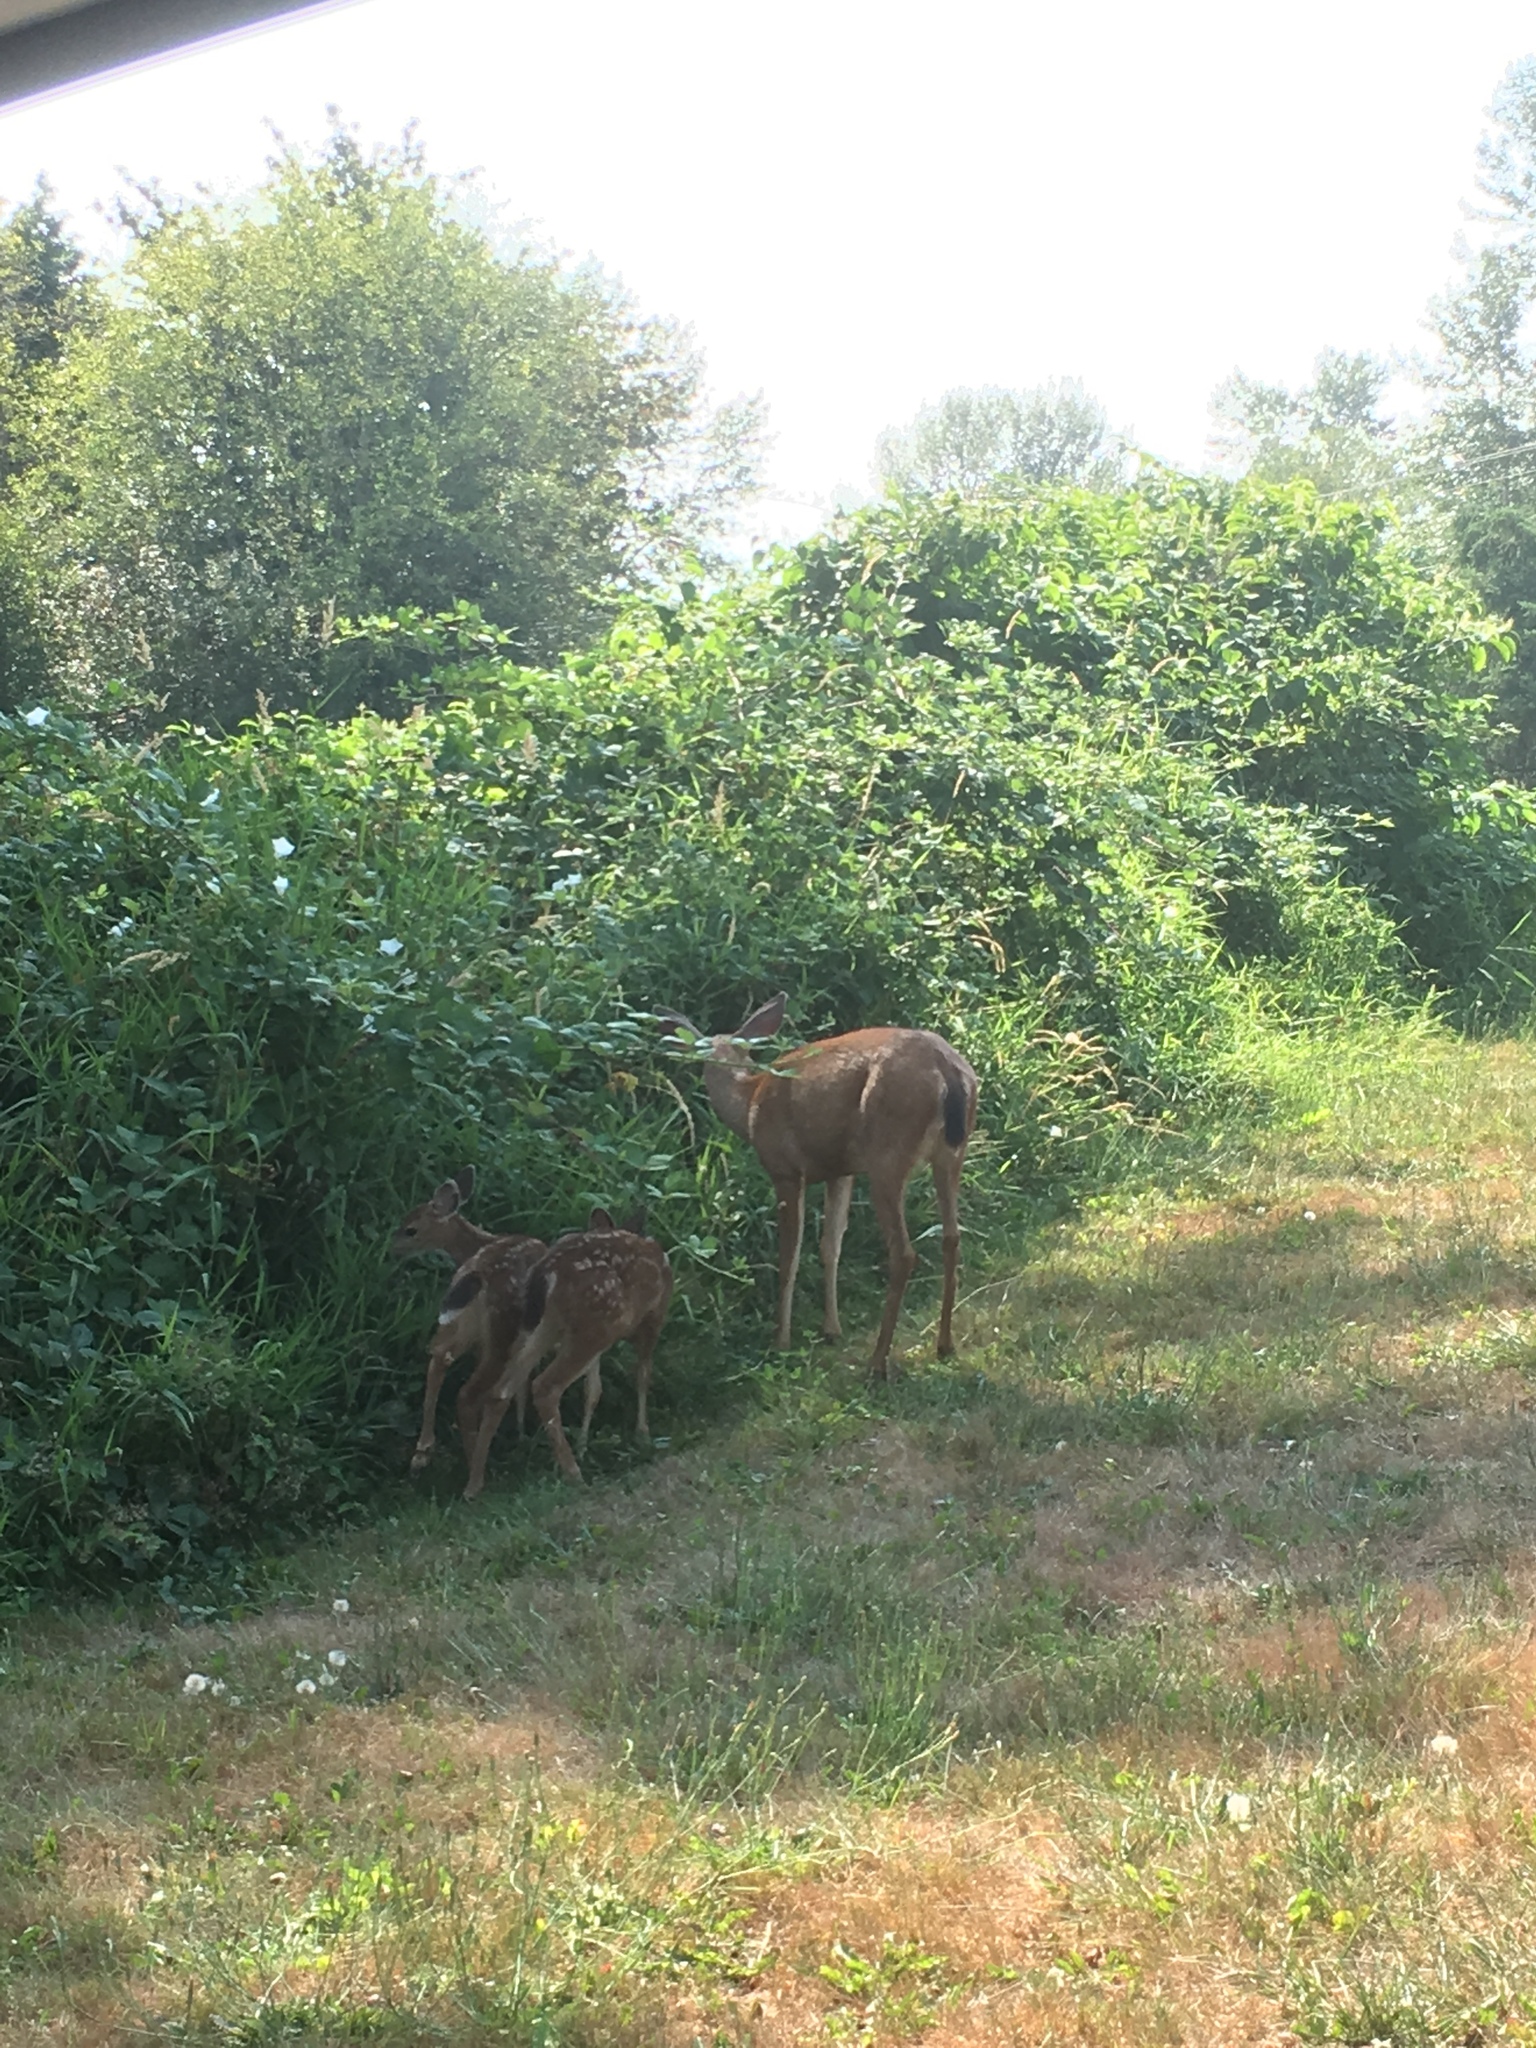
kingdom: Animalia
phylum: Chordata
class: Mammalia
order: Artiodactyla
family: Cervidae
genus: Odocoileus
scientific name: Odocoileus hemionus
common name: Mule deer
